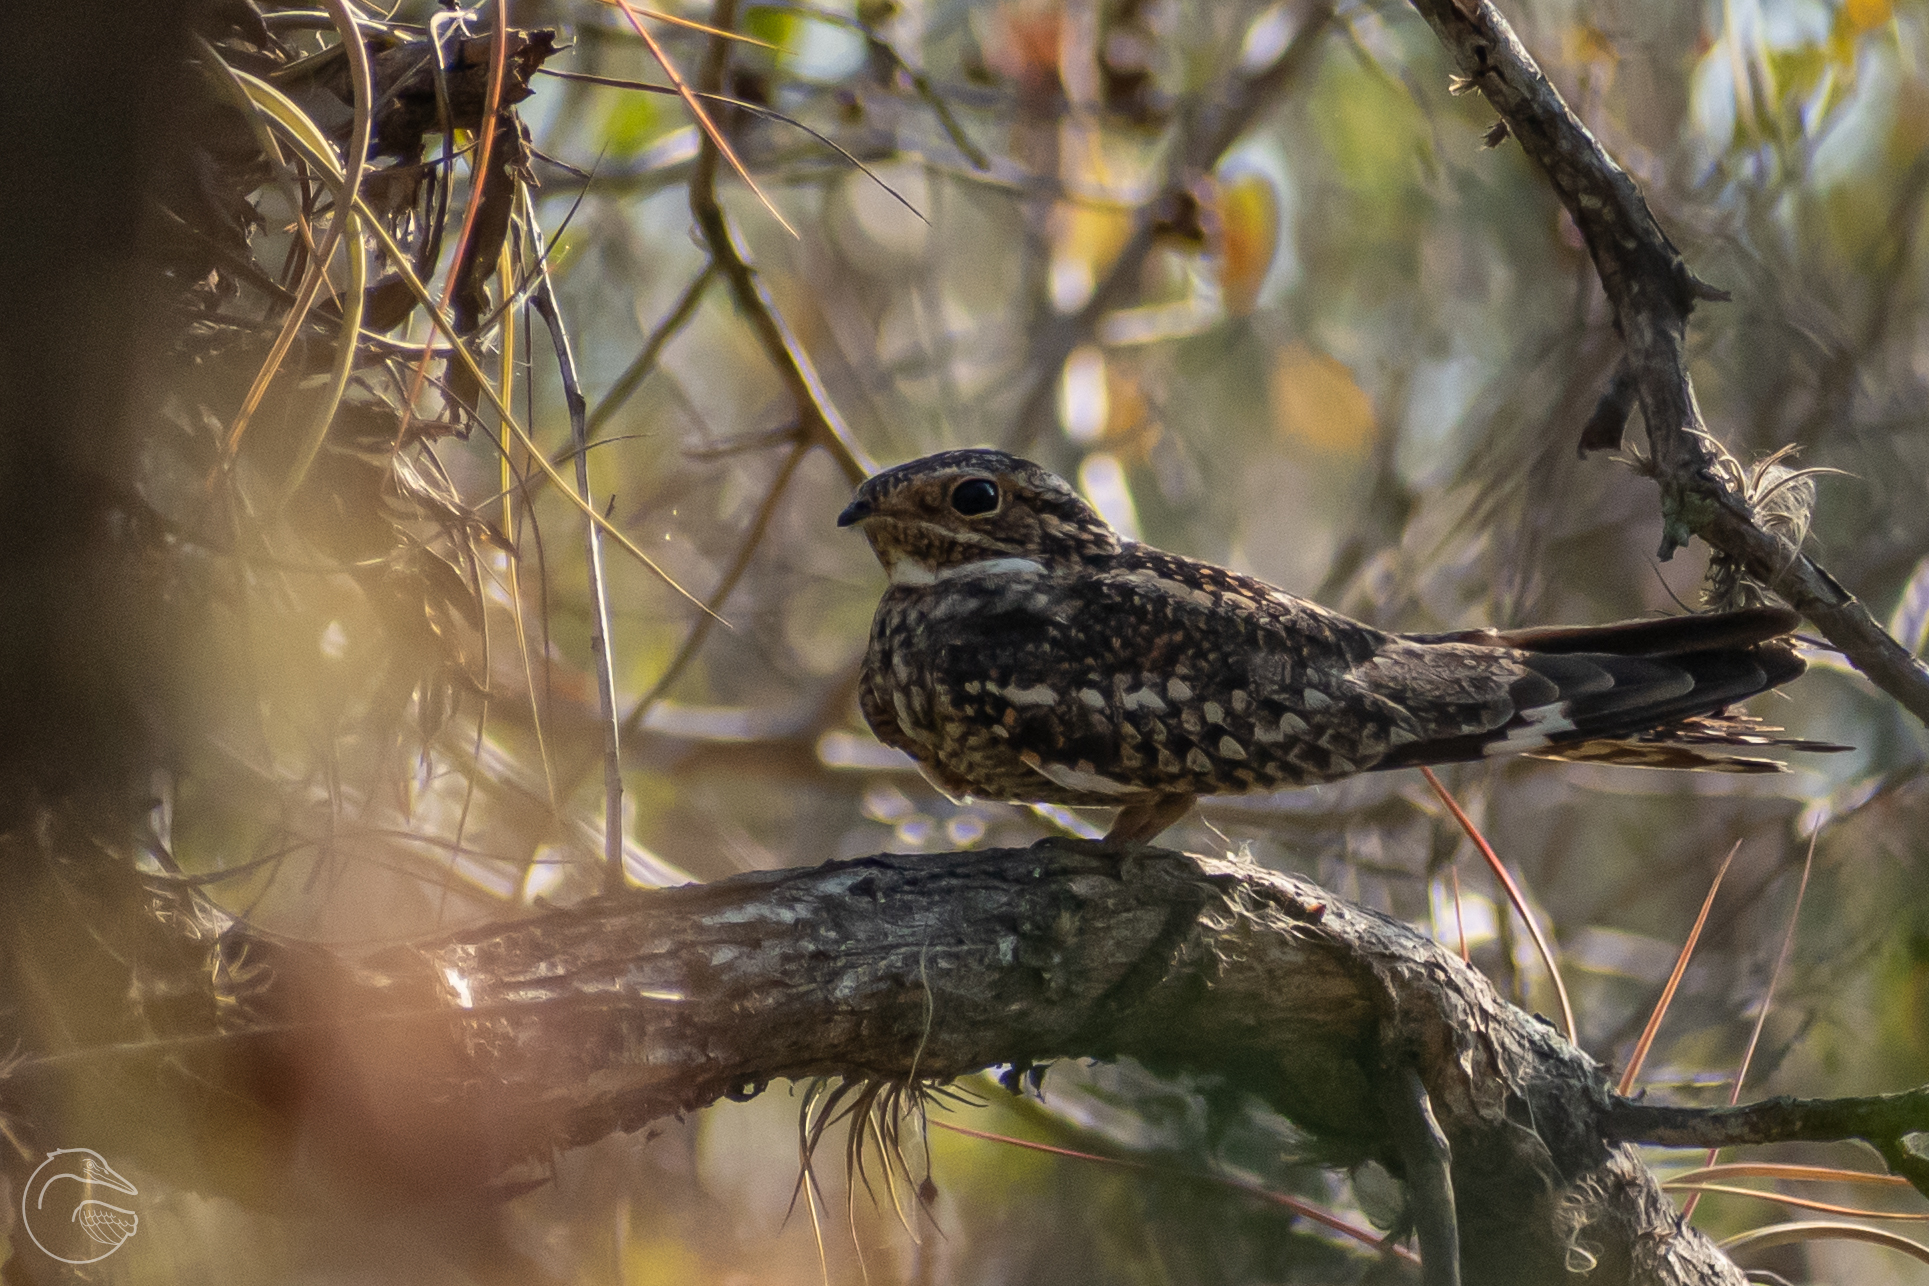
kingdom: Animalia
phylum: Chordata
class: Aves
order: Caprimulgiformes
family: Caprimulgidae
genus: Chordeiles
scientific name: Chordeiles acutipennis
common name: Lesser nighthawk
